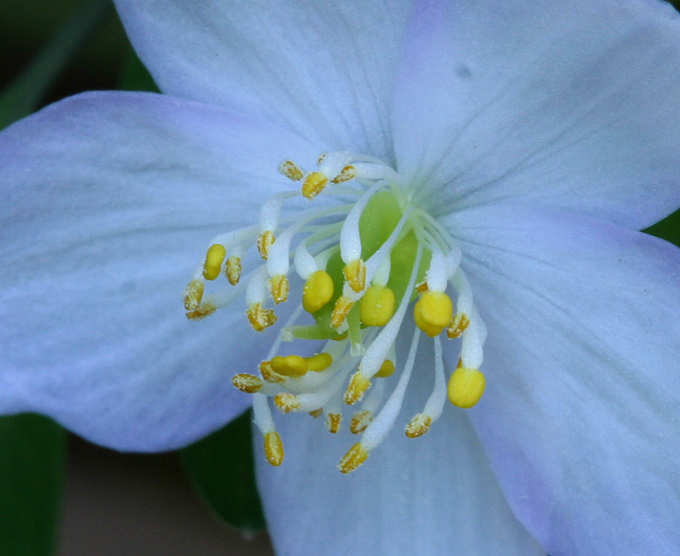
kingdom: Plantae
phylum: Tracheophyta
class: Magnoliopsida
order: Ranunculales
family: Ranunculaceae
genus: Enemion
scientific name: Enemion occidentale
